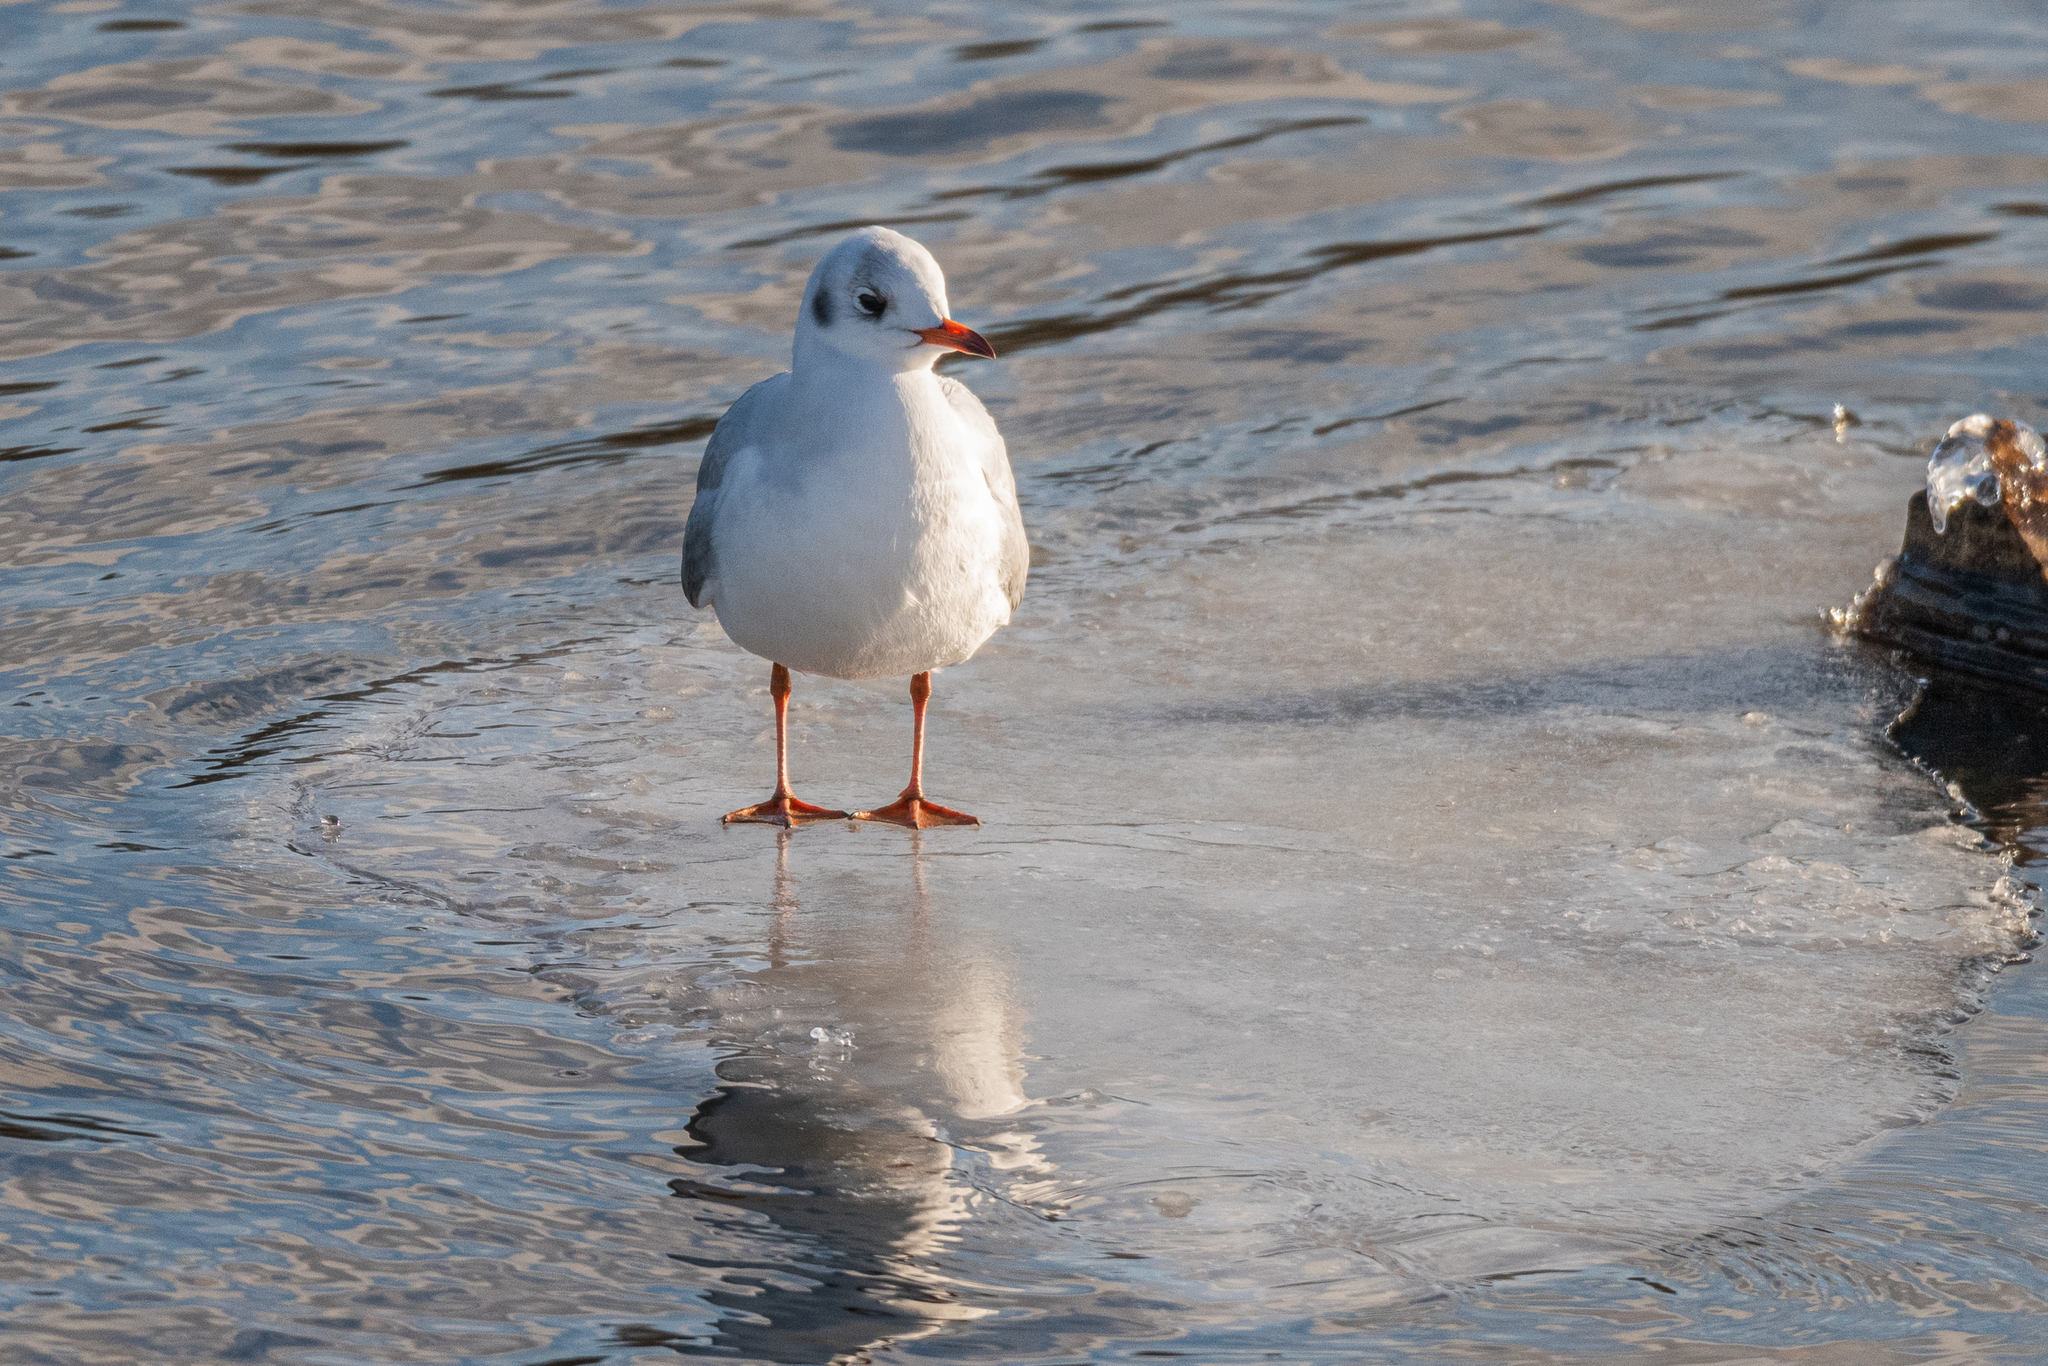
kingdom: Animalia
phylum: Chordata
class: Aves
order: Charadriiformes
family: Laridae
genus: Chroicocephalus
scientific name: Chroicocephalus ridibundus
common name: Black-headed gull
